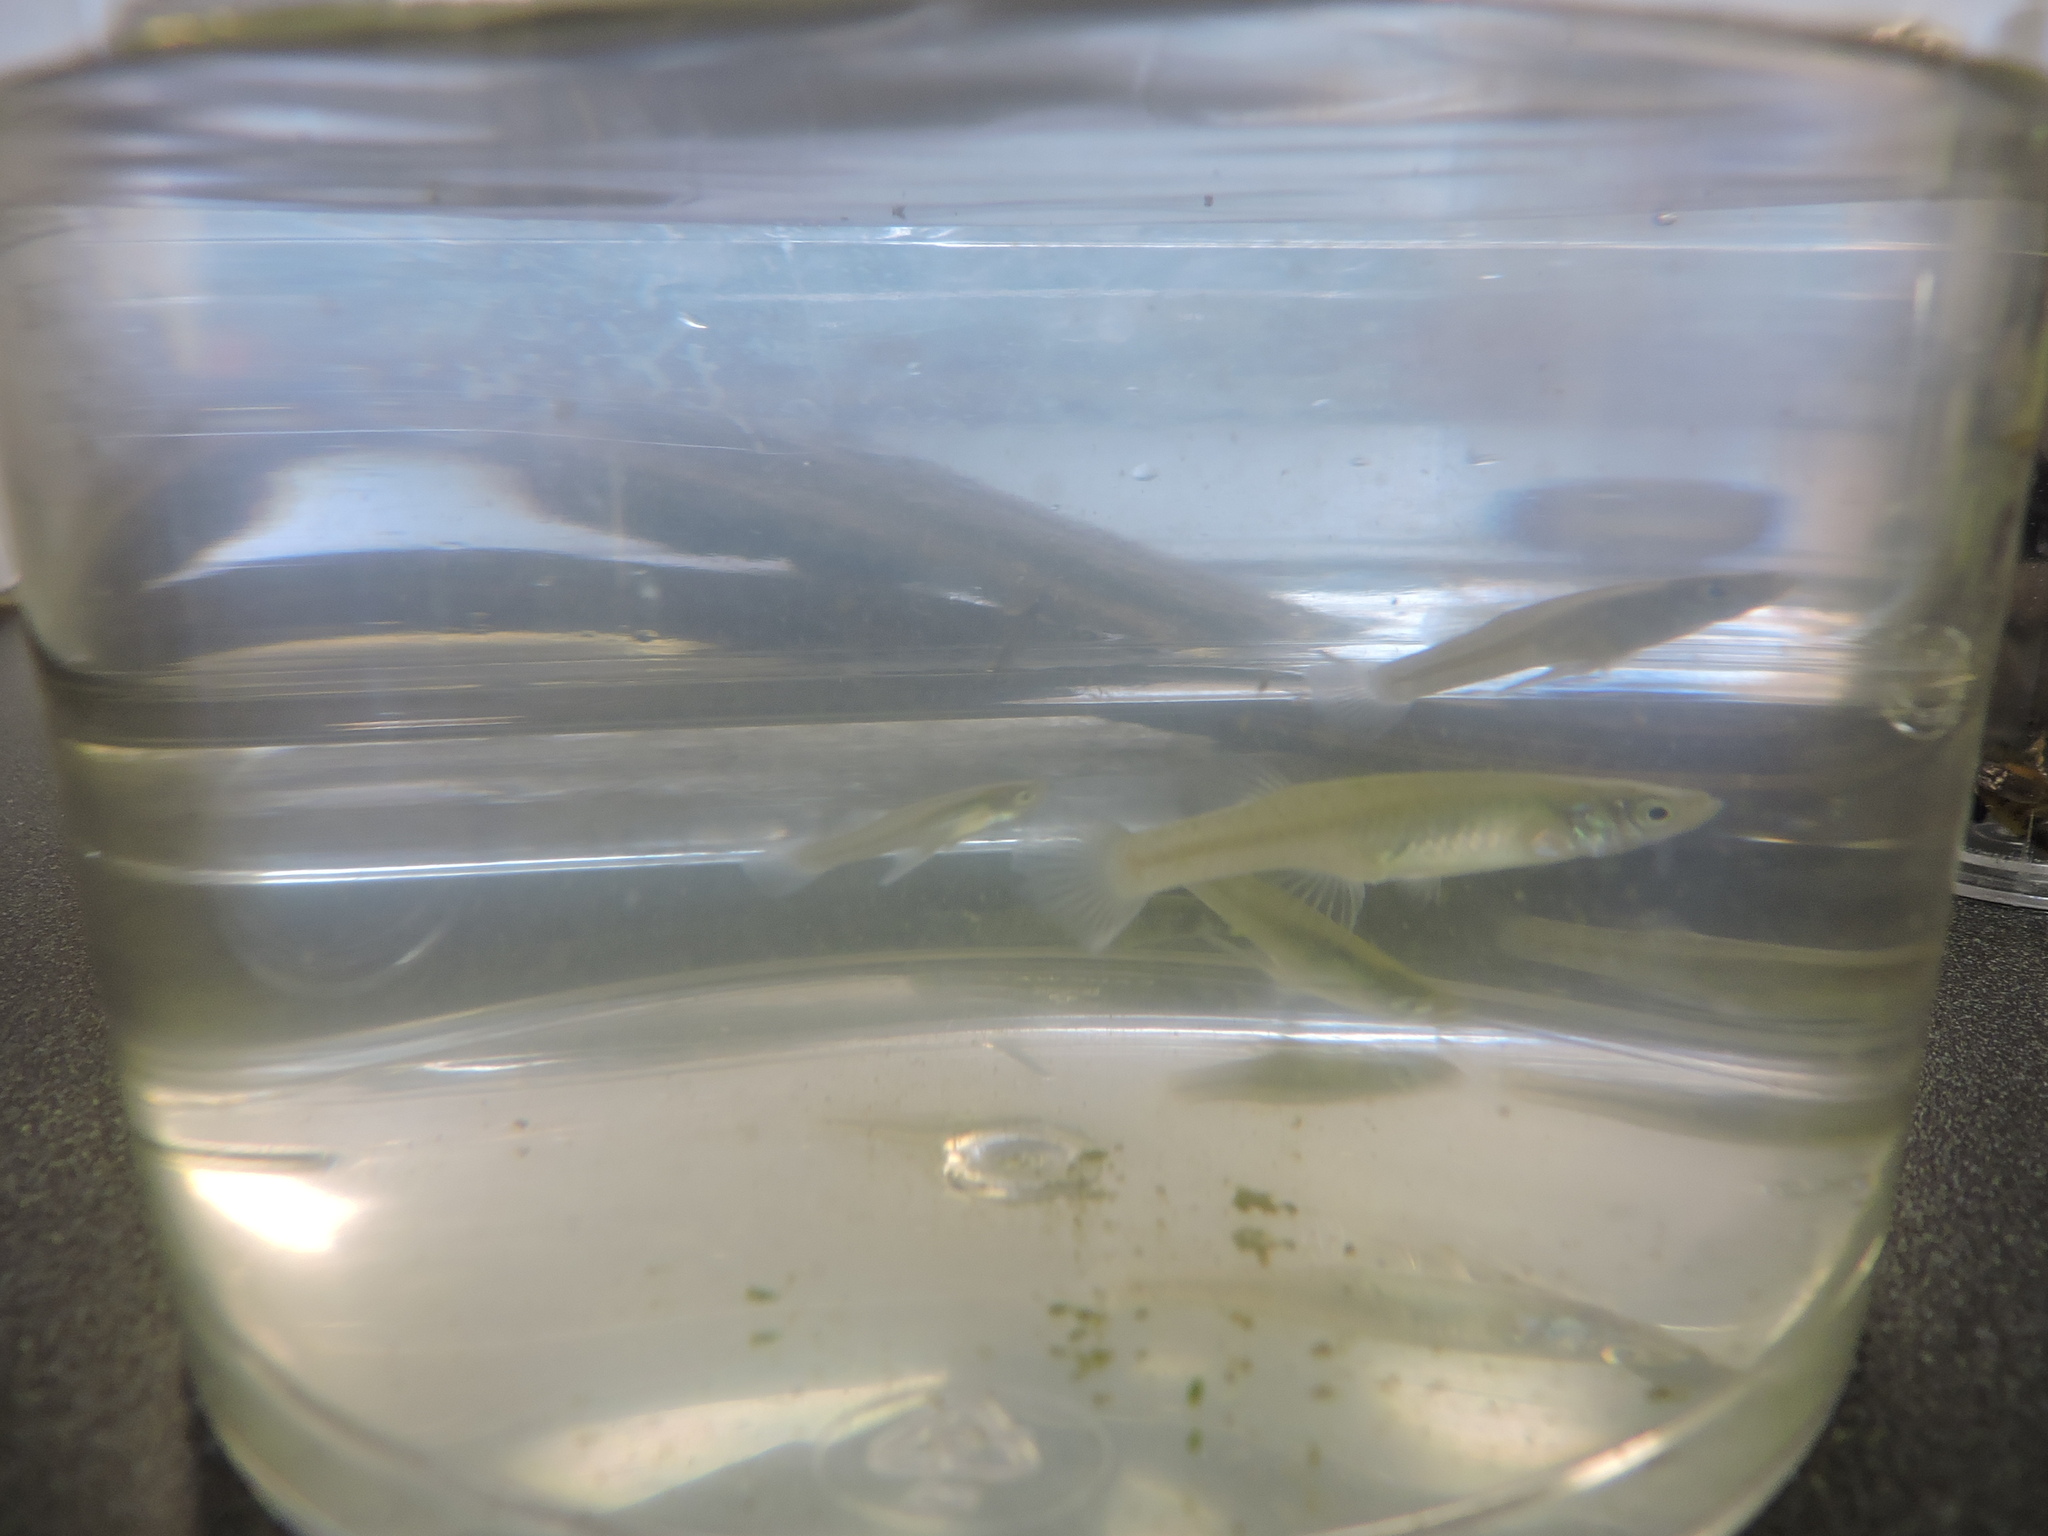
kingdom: Animalia
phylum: Chordata
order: Cyprinodontiformes
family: Poeciliidae
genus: Gambusia
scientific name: Gambusia affinis
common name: Mosquitofish
